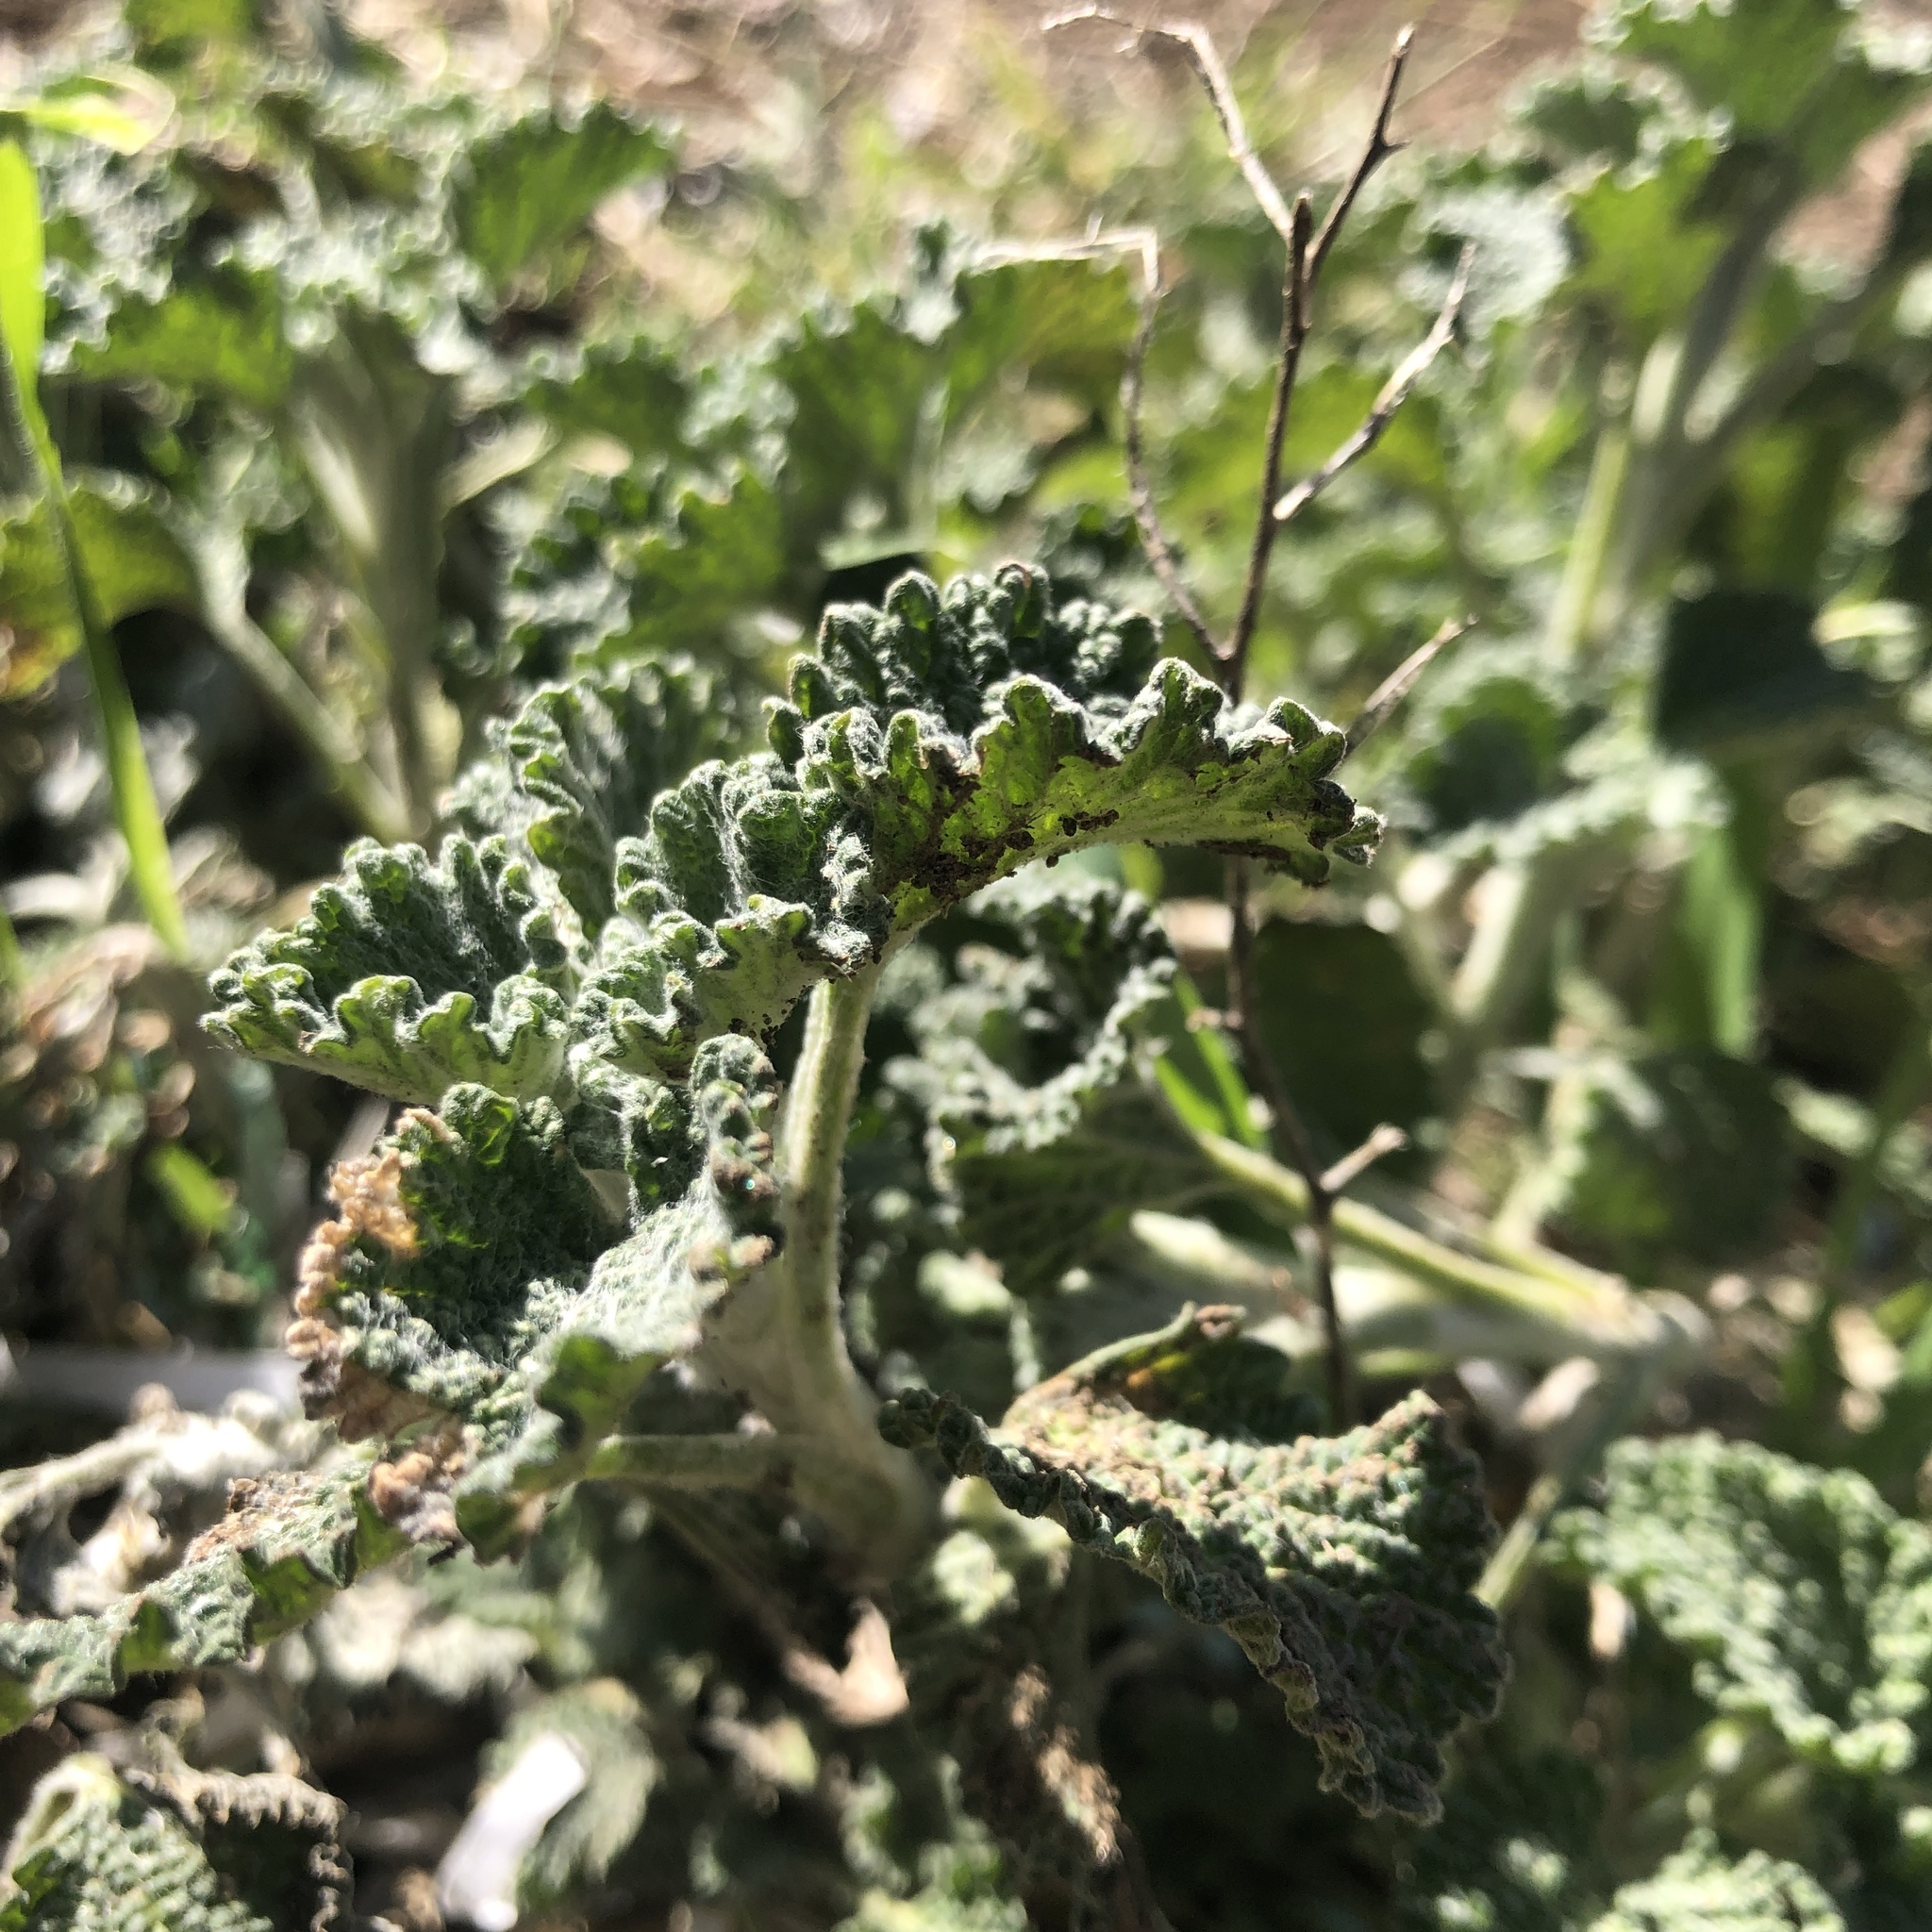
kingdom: Plantae
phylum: Tracheophyta
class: Magnoliopsida
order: Lamiales
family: Lamiaceae
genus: Marrubium
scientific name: Marrubium vulgare
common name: Horehound
